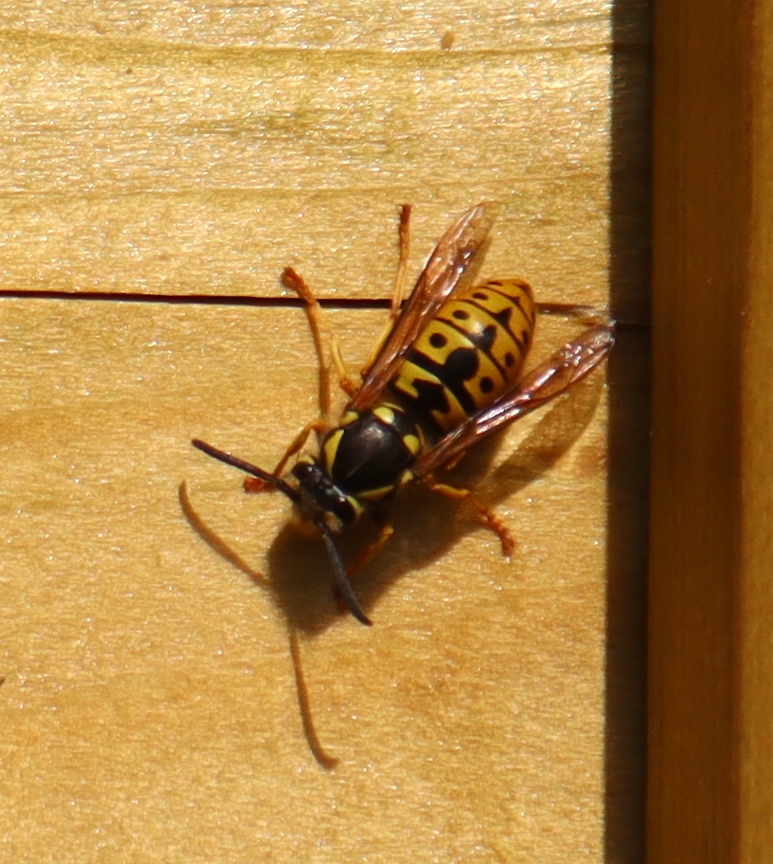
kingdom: Animalia
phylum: Arthropoda
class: Insecta
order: Hymenoptera
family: Vespidae
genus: Vespula
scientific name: Vespula germanica
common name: German wasp
